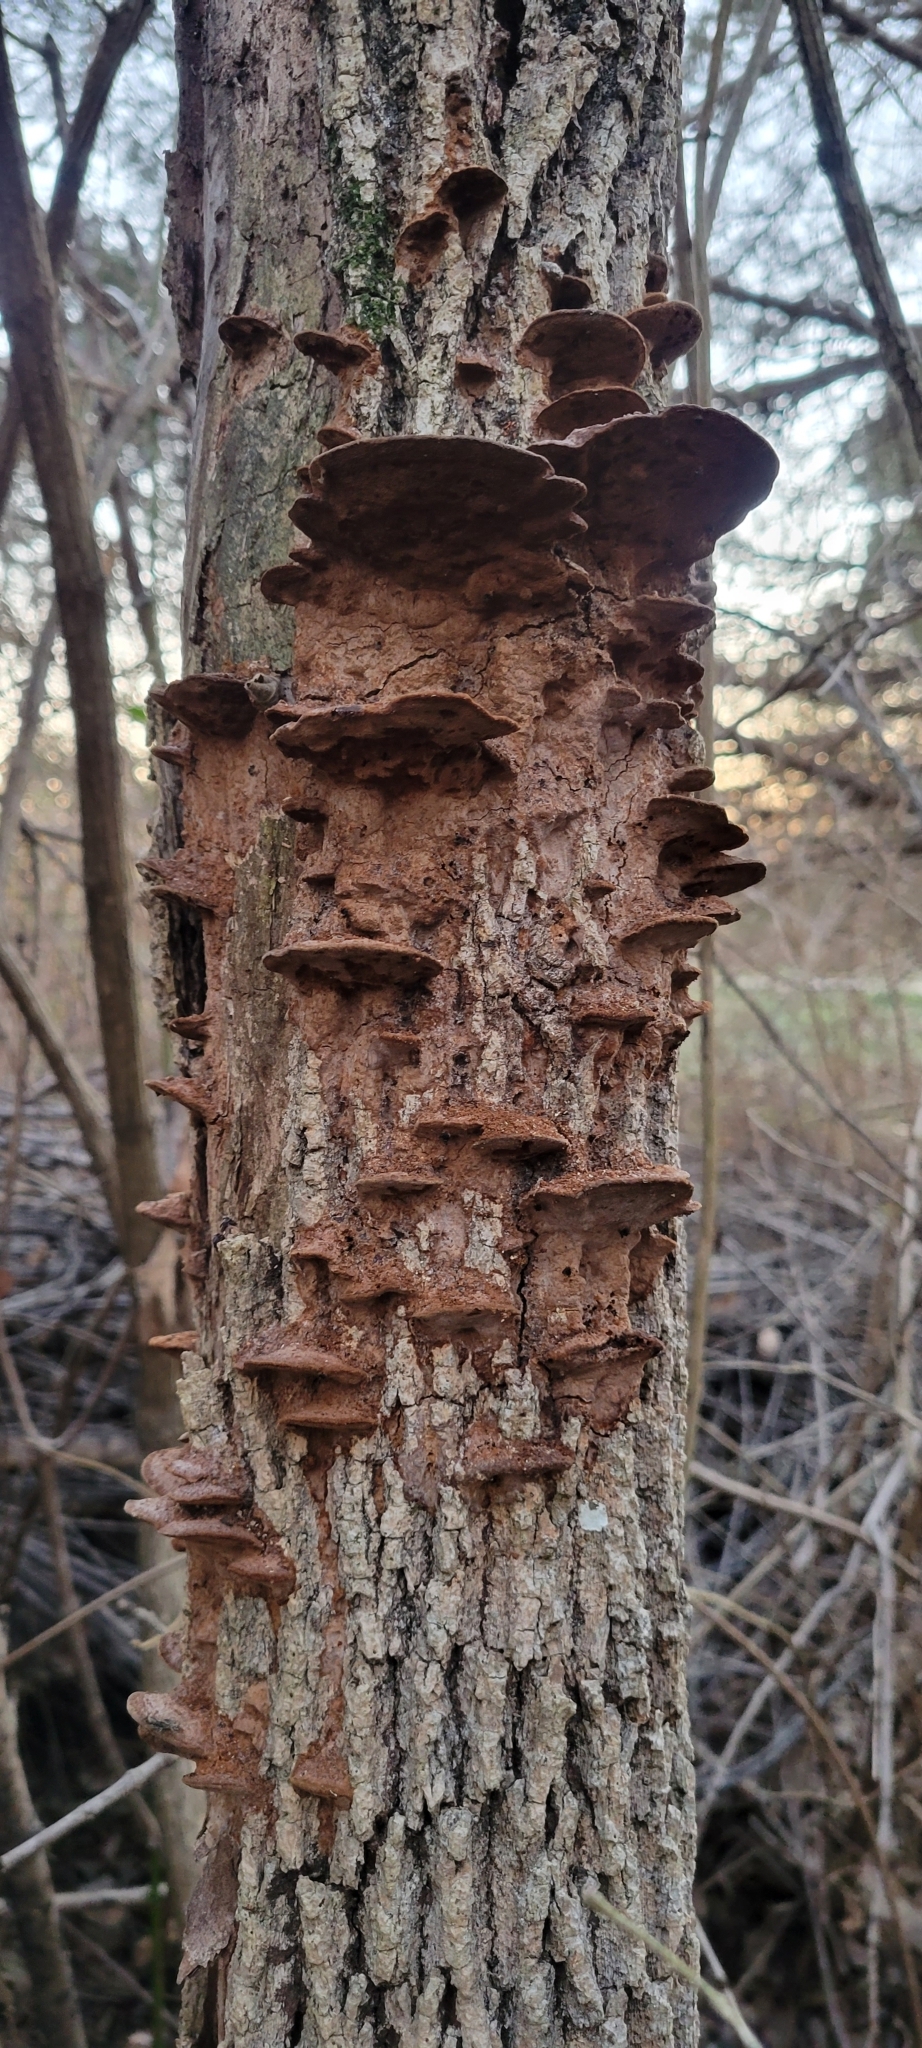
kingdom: Fungi
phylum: Basidiomycota
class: Agaricomycetes
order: Hymenochaetales
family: Hymenochaetaceae
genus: Phellinus
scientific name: Phellinus gilvus
